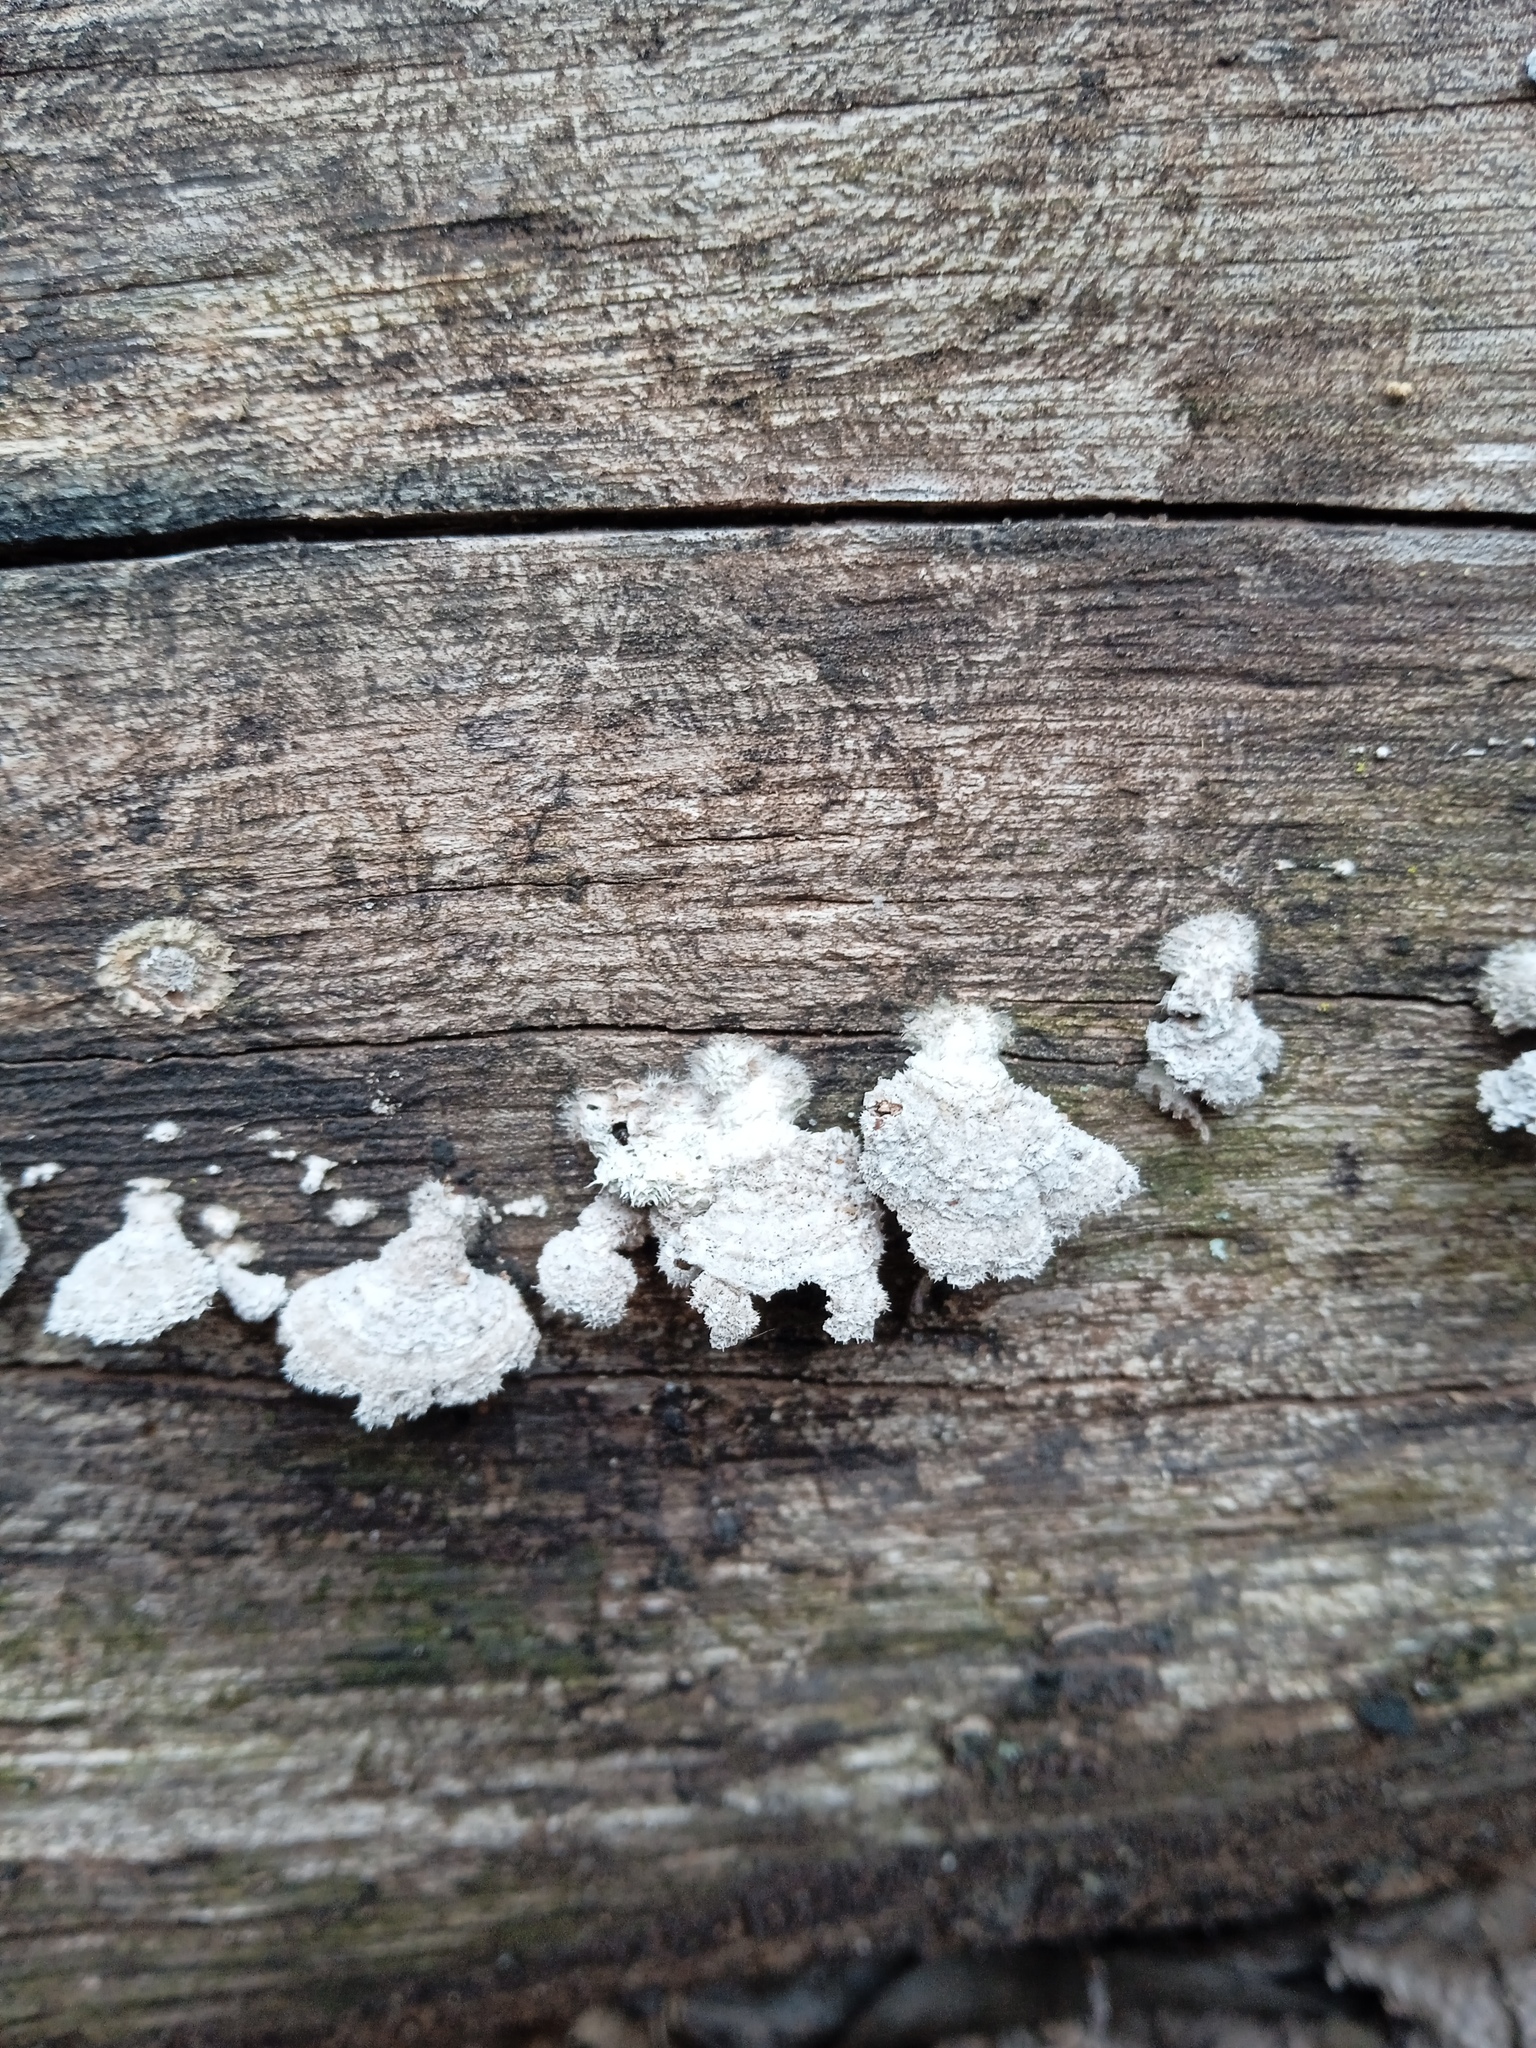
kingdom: Fungi
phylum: Basidiomycota
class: Agaricomycetes
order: Agaricales
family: Schizophyllaceae
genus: Schizophyllum
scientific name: Schizophyllum commune
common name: Common porecrust
